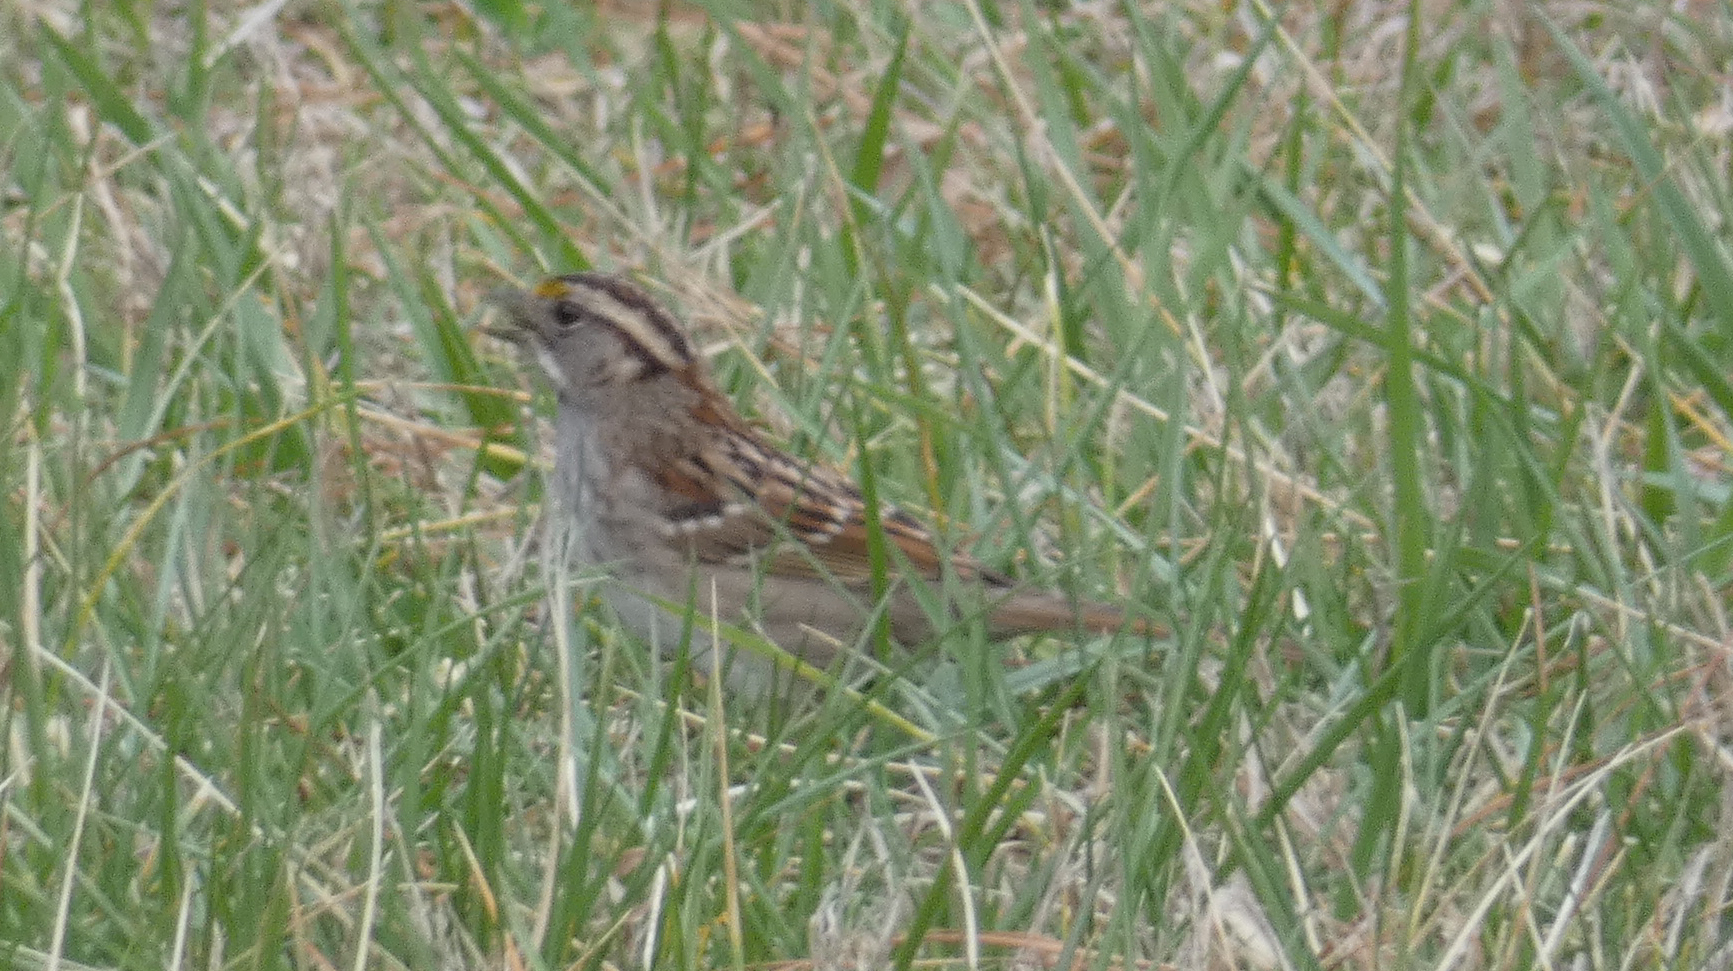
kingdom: Animalia
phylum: Chordata
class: Aves
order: Passeriformes
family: Passerellidae
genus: Zonotrichia
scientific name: Zonotrichia albicollis
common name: White-throated sparrow
